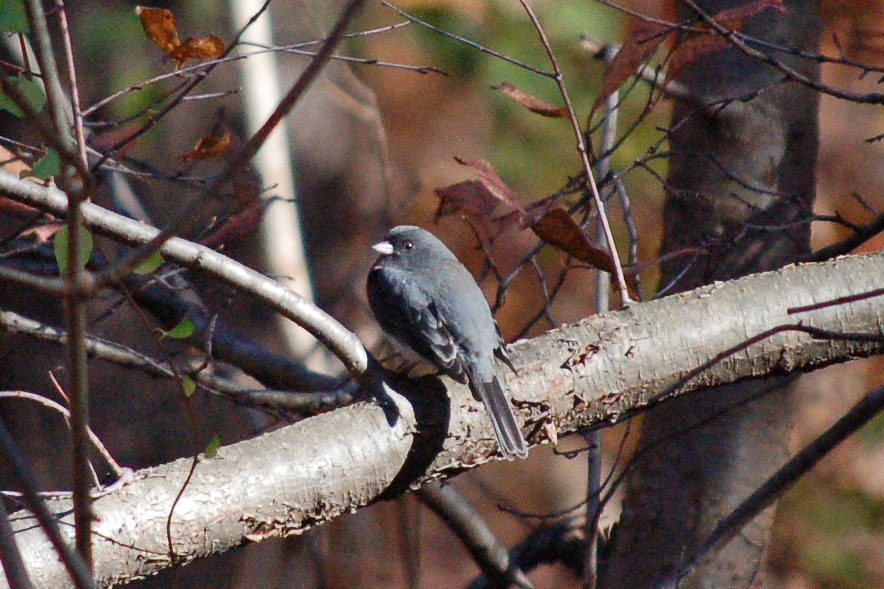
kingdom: Animalia
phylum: Chordata
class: Aves
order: Passeriformes
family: Passerellidae
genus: Junco
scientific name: Junco hyemalis
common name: Dark-eyed junco
